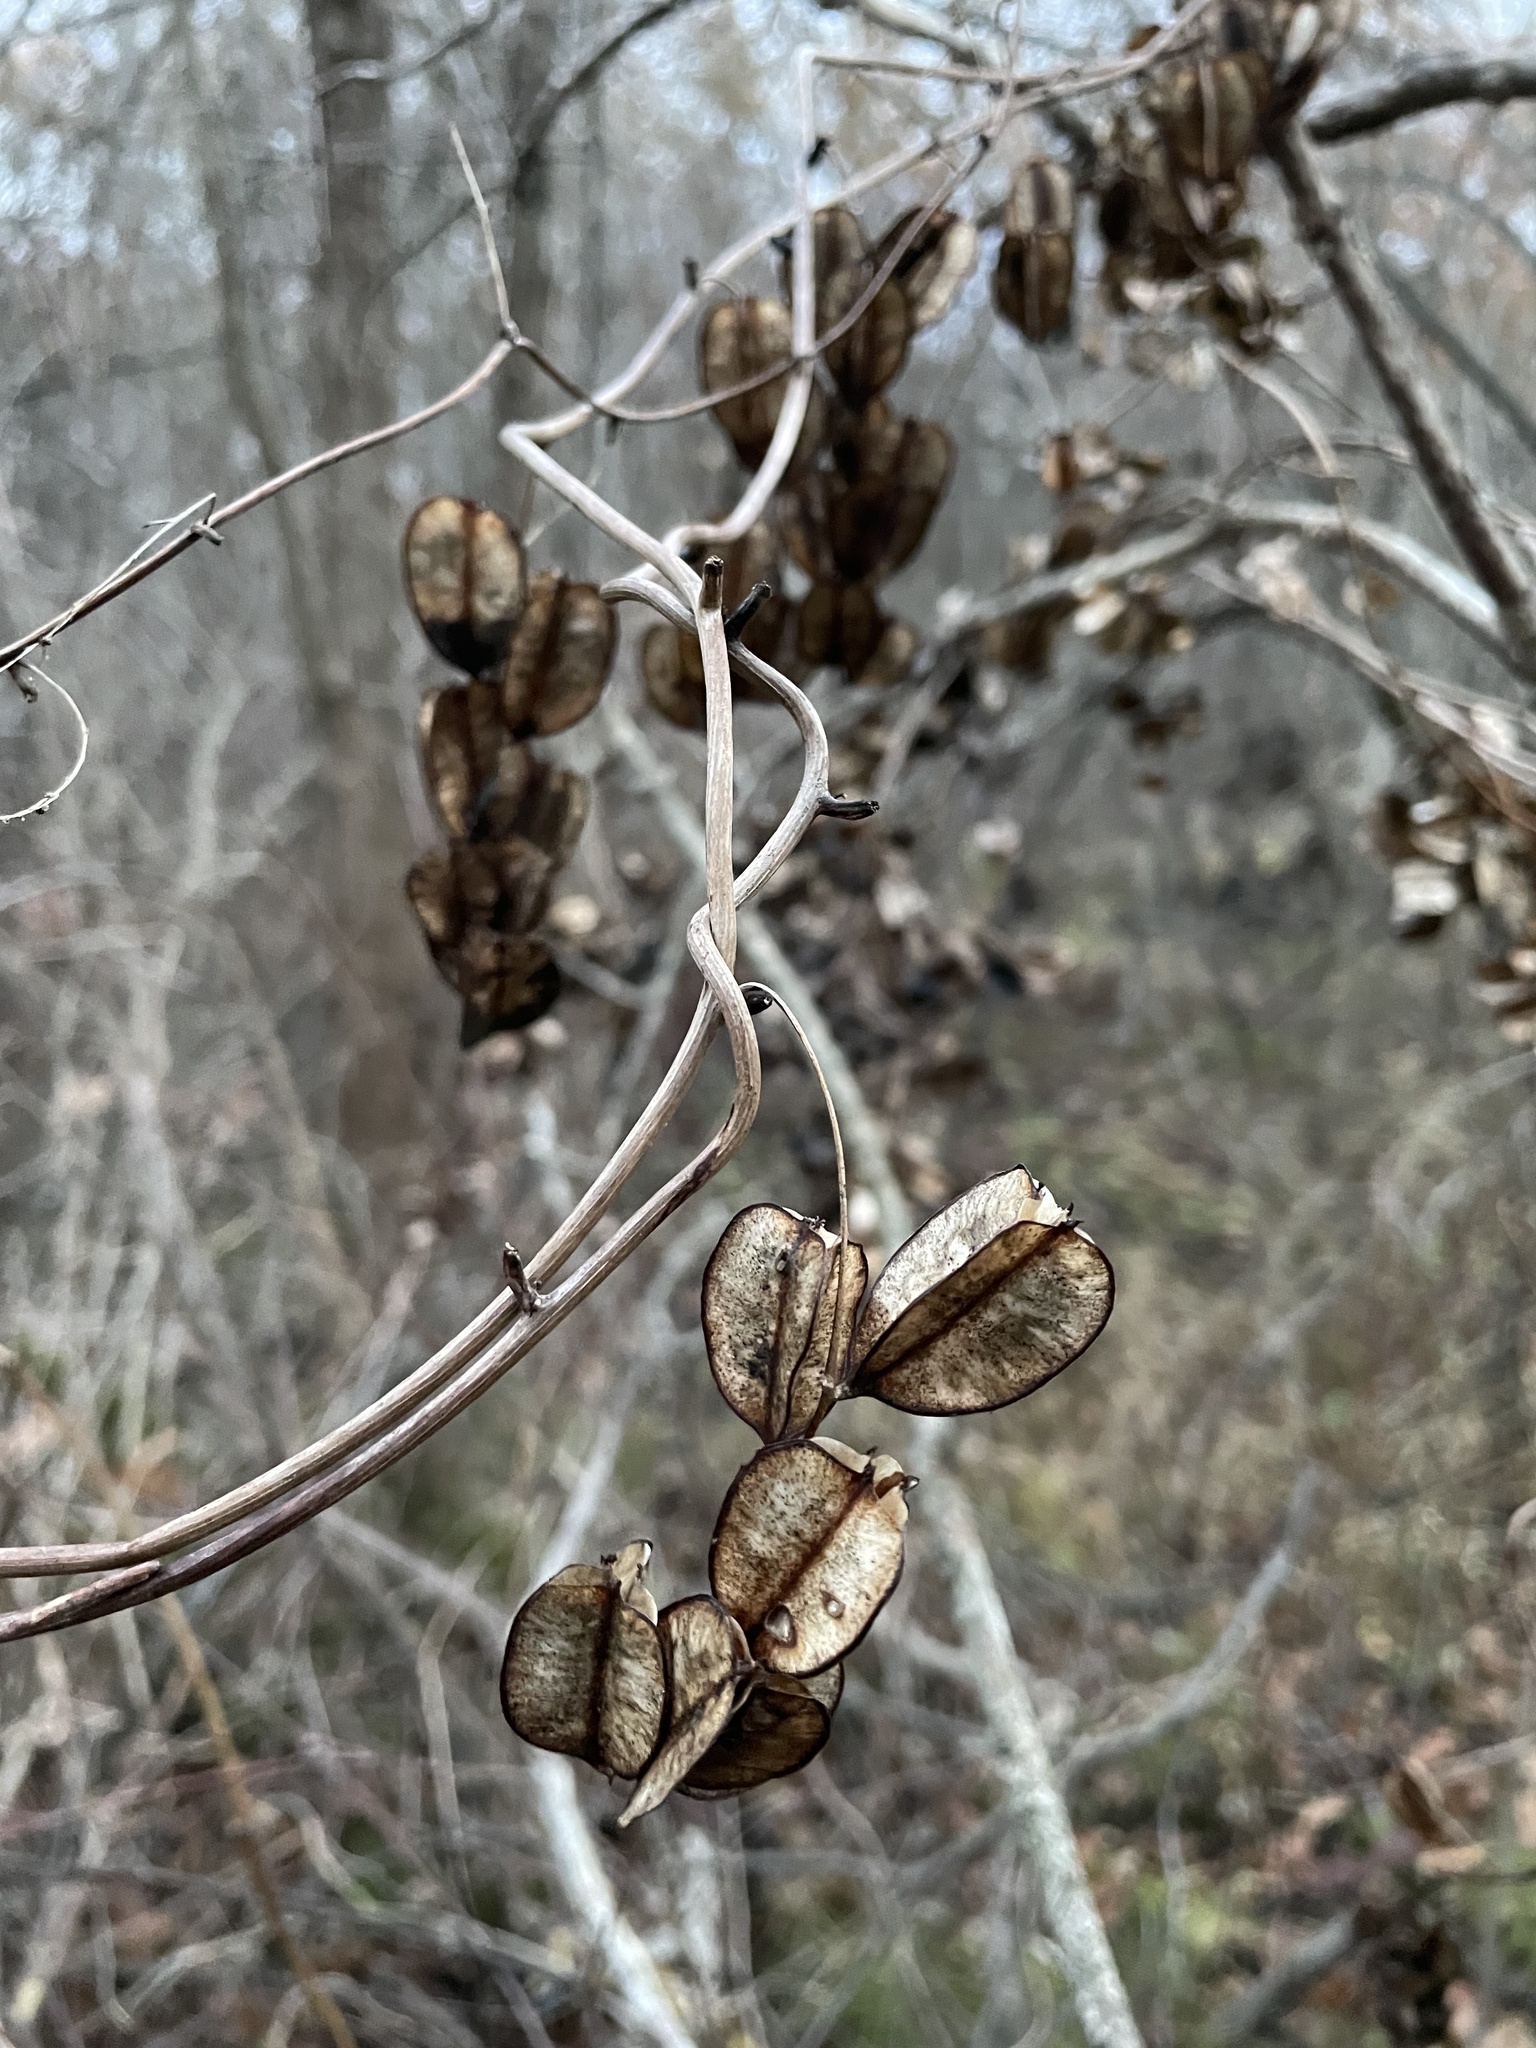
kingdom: Plantae
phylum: Tracheophyta
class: Liliopsida
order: Dioscoreales
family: Dioscoreaceae
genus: Dioscorea
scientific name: Dioscorea villosa
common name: Wild yam
